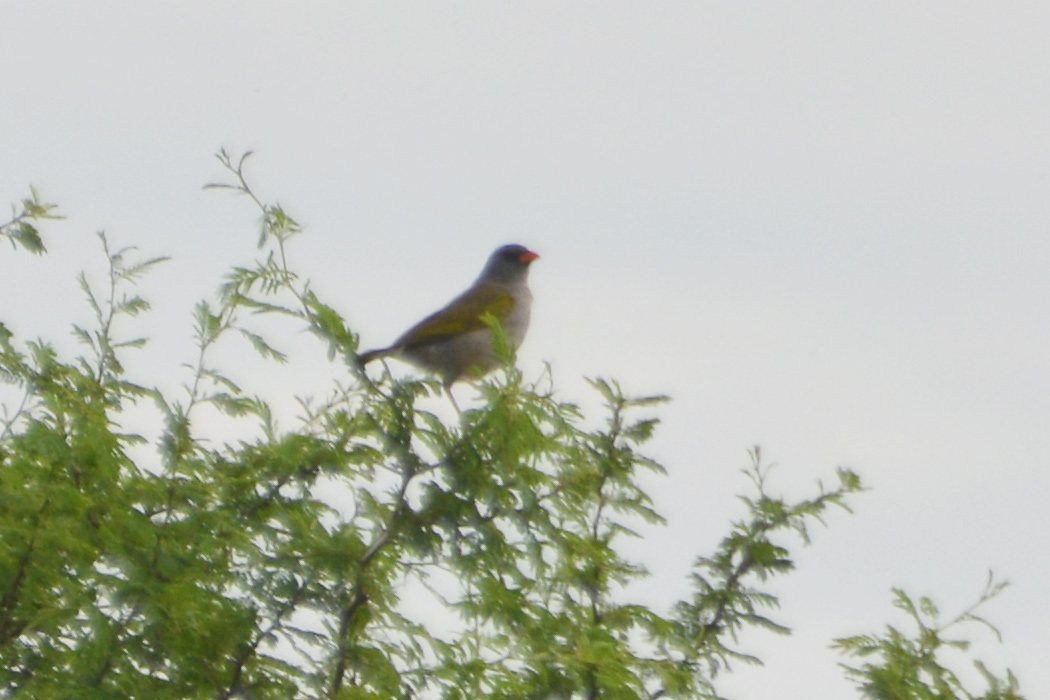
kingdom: Animalia
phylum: Chordata
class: Aves
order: Passeriformes
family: Thraupidae
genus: Embernagra
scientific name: Embernagra platensis
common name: Pampa finch
